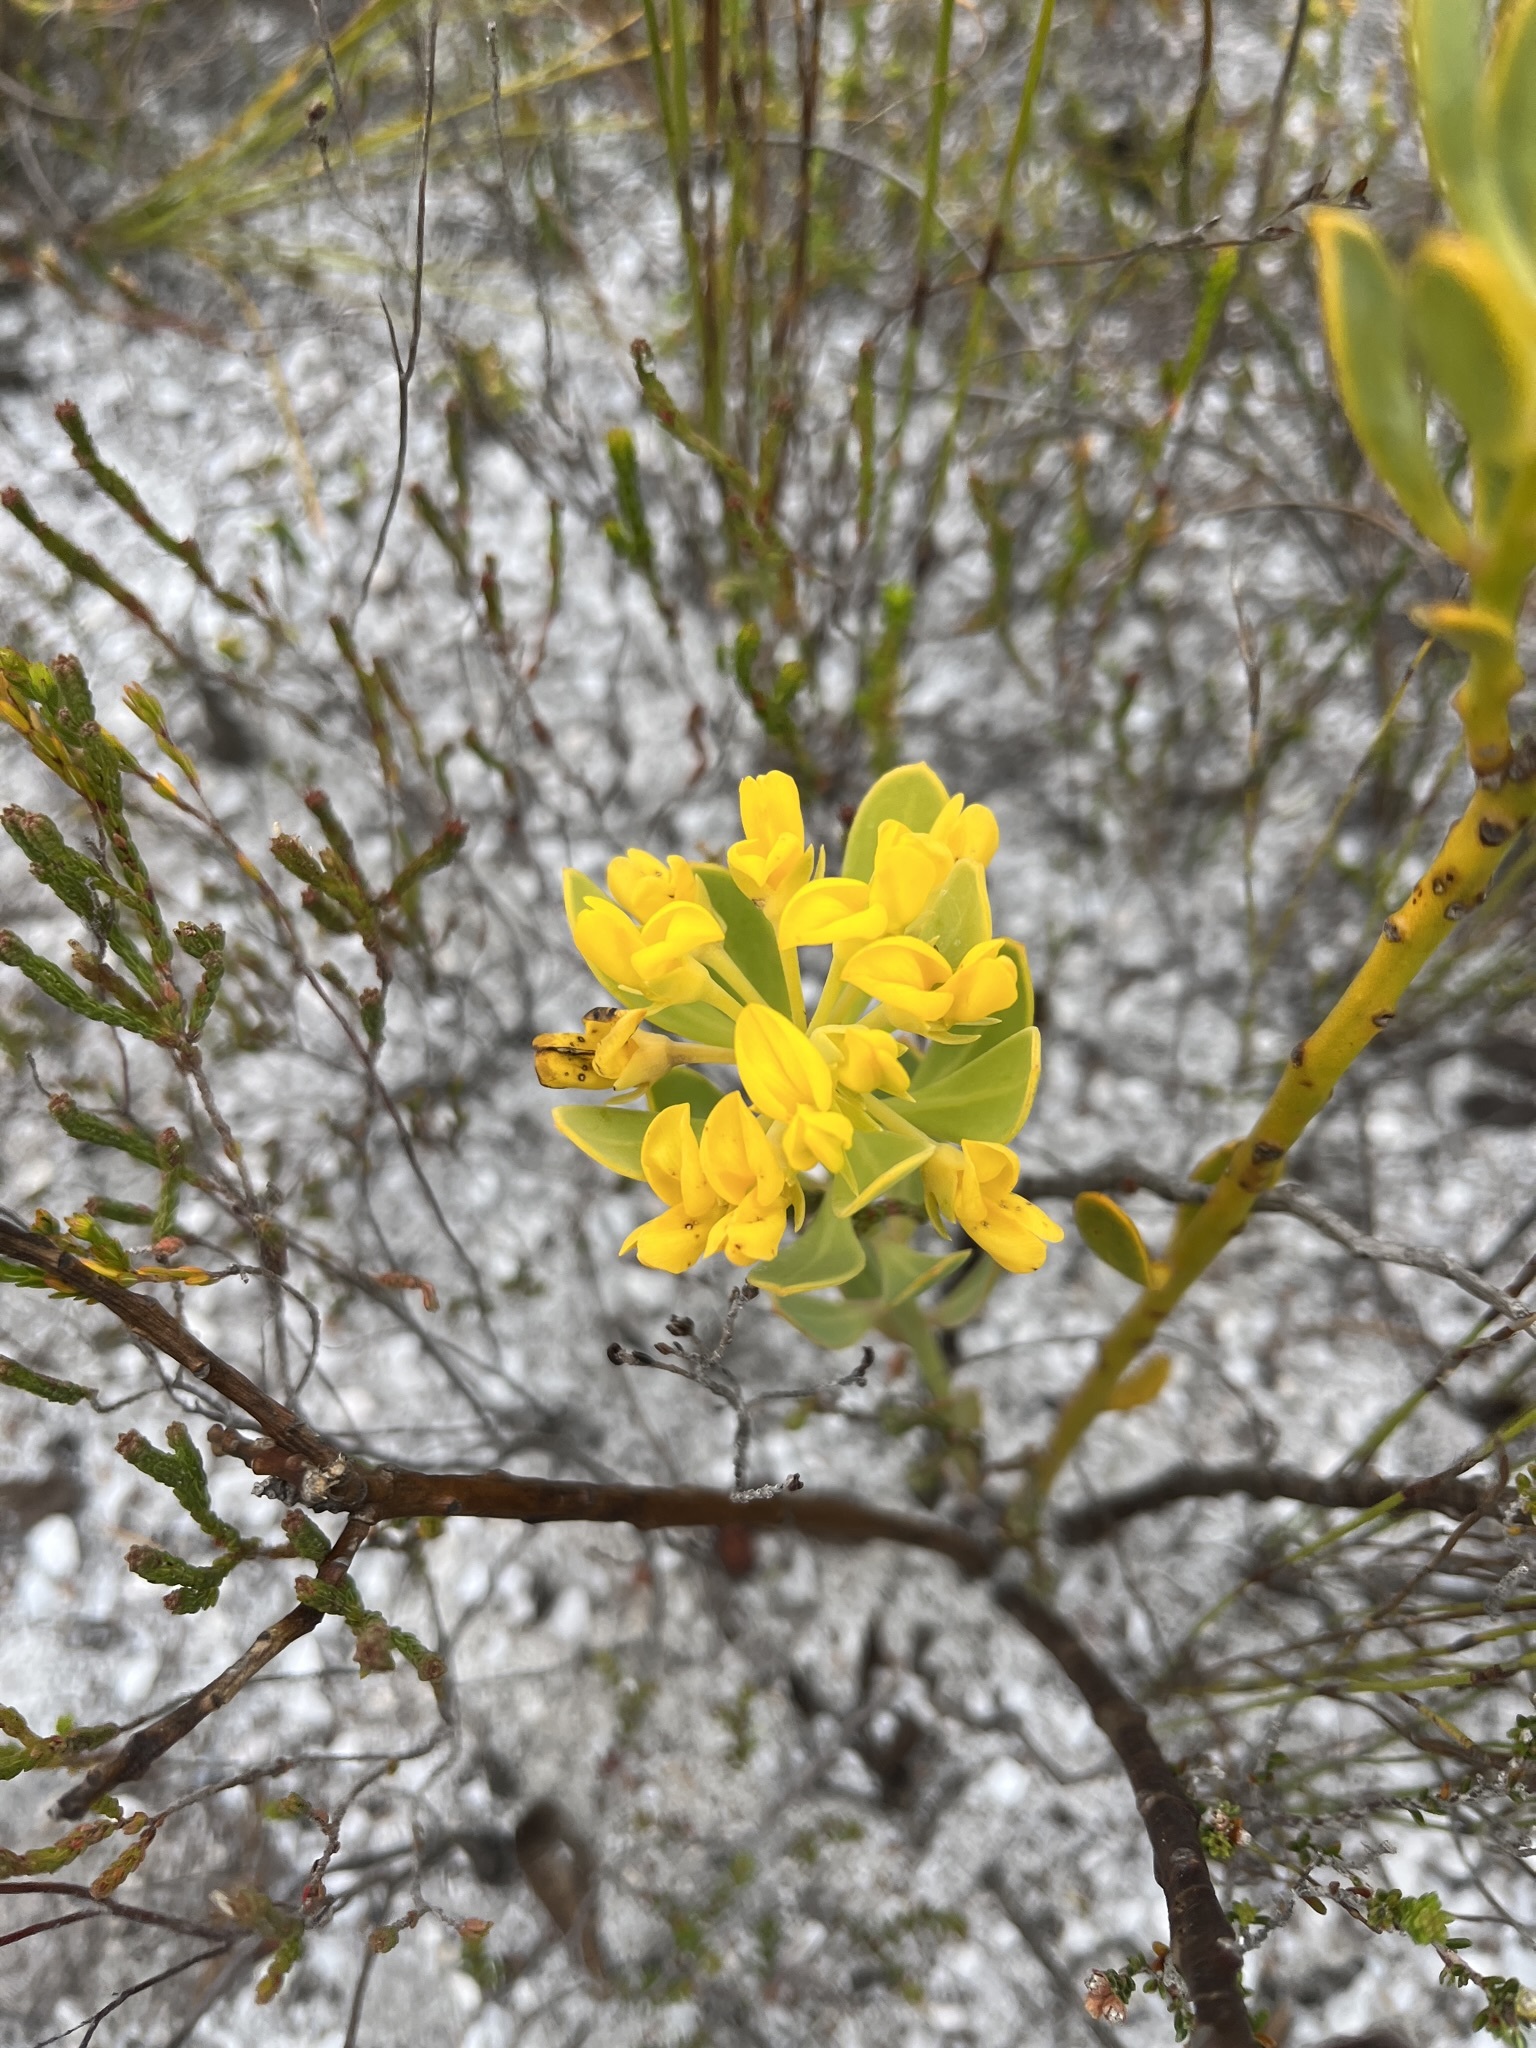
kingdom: Plantae
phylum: Tracheophyta
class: Magnoliopsida
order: Fabales
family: Fabaceae
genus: Rafnia
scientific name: Rafnia capensis
